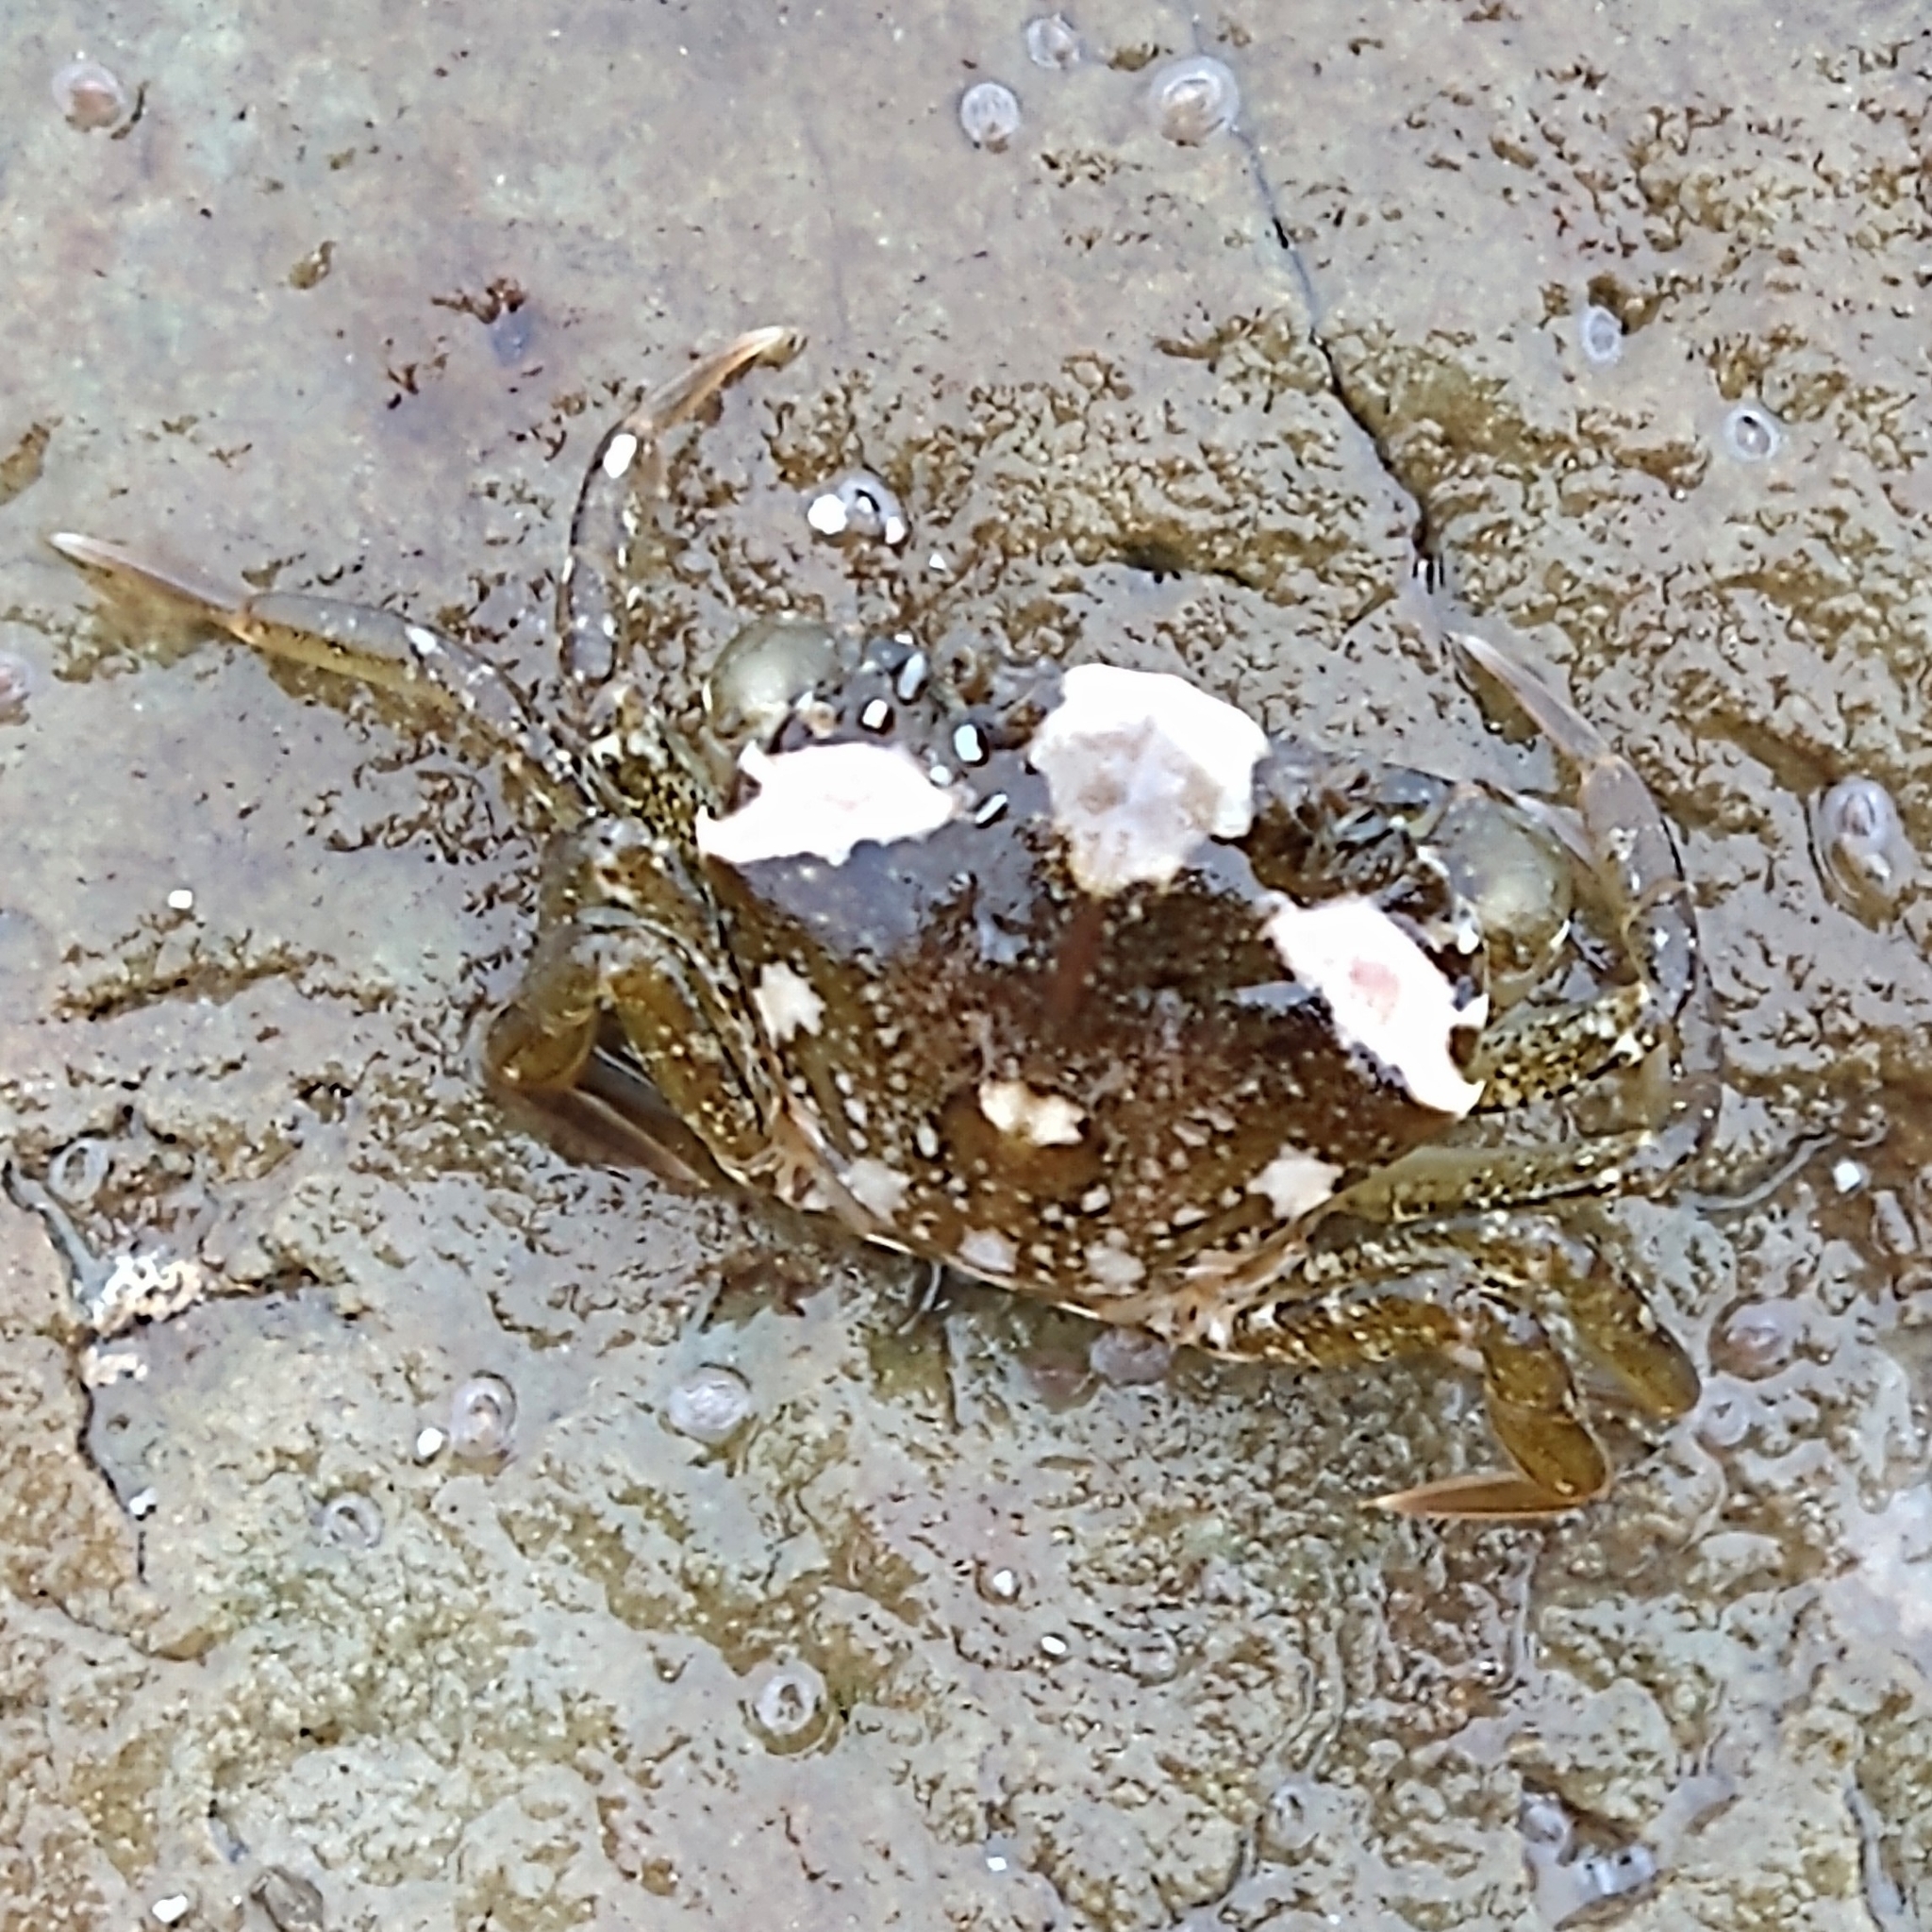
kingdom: Animalia
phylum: Arthropoda
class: Malacostraca
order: Decapoda
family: Carcinidae
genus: Carcinus
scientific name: Carcinus maenas
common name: European green crab
